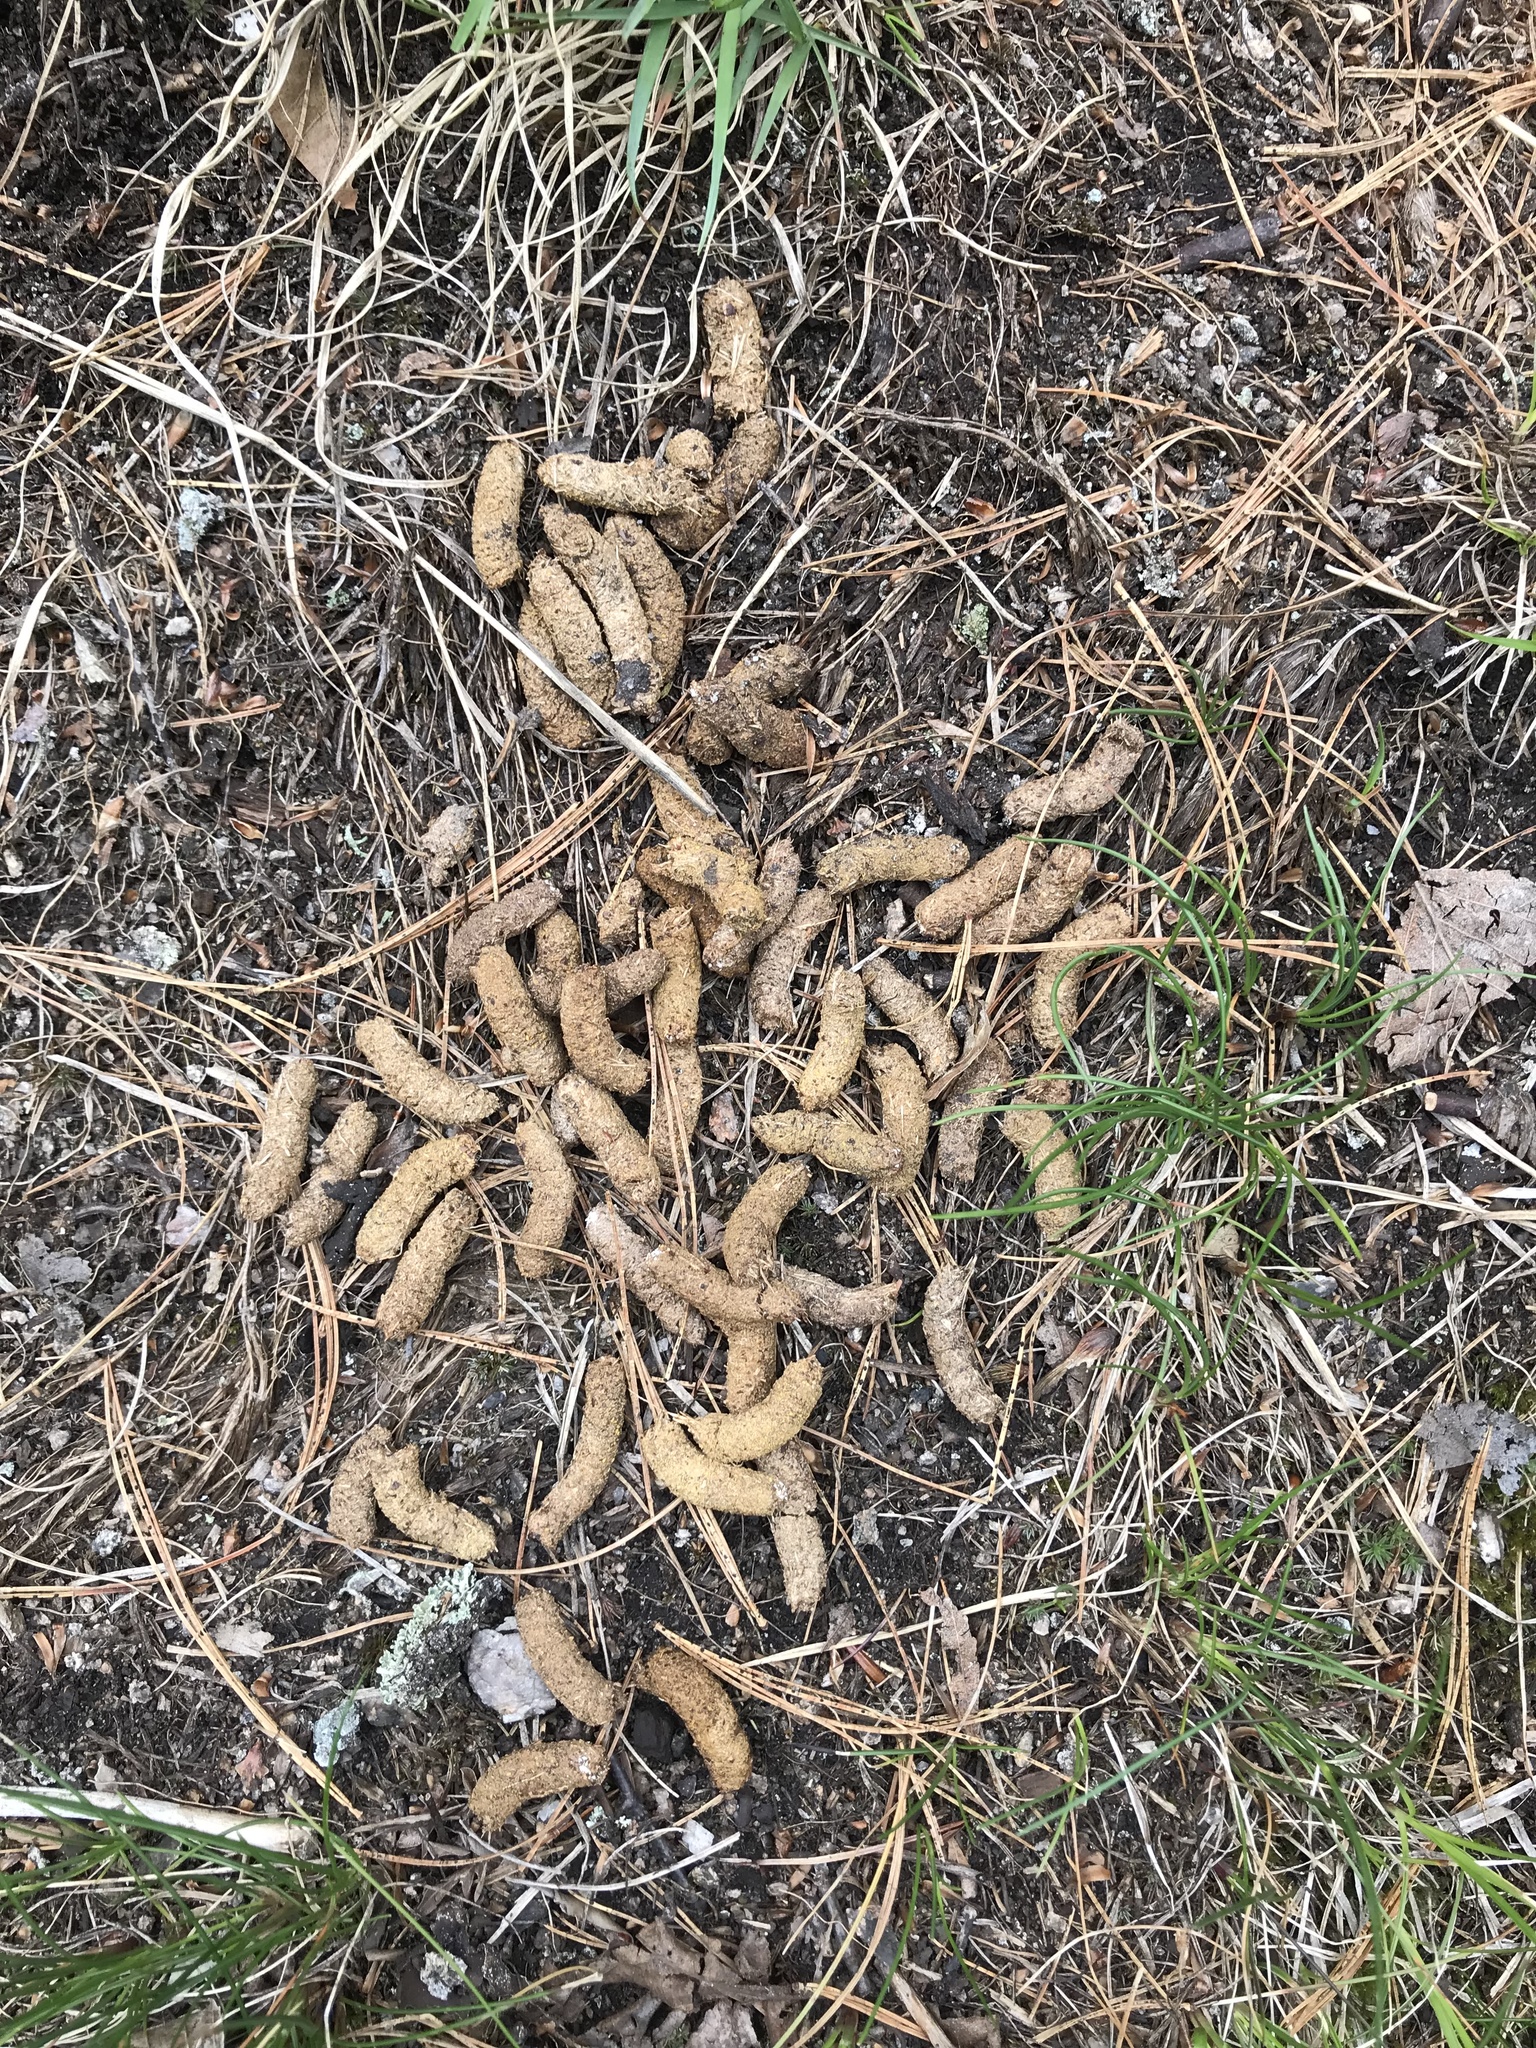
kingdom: Animalia
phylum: Chordata
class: Aves
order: Galliformes
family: Phasianidae
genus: Bonasa
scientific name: Bonasa umbellus
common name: Ruffed grouse
